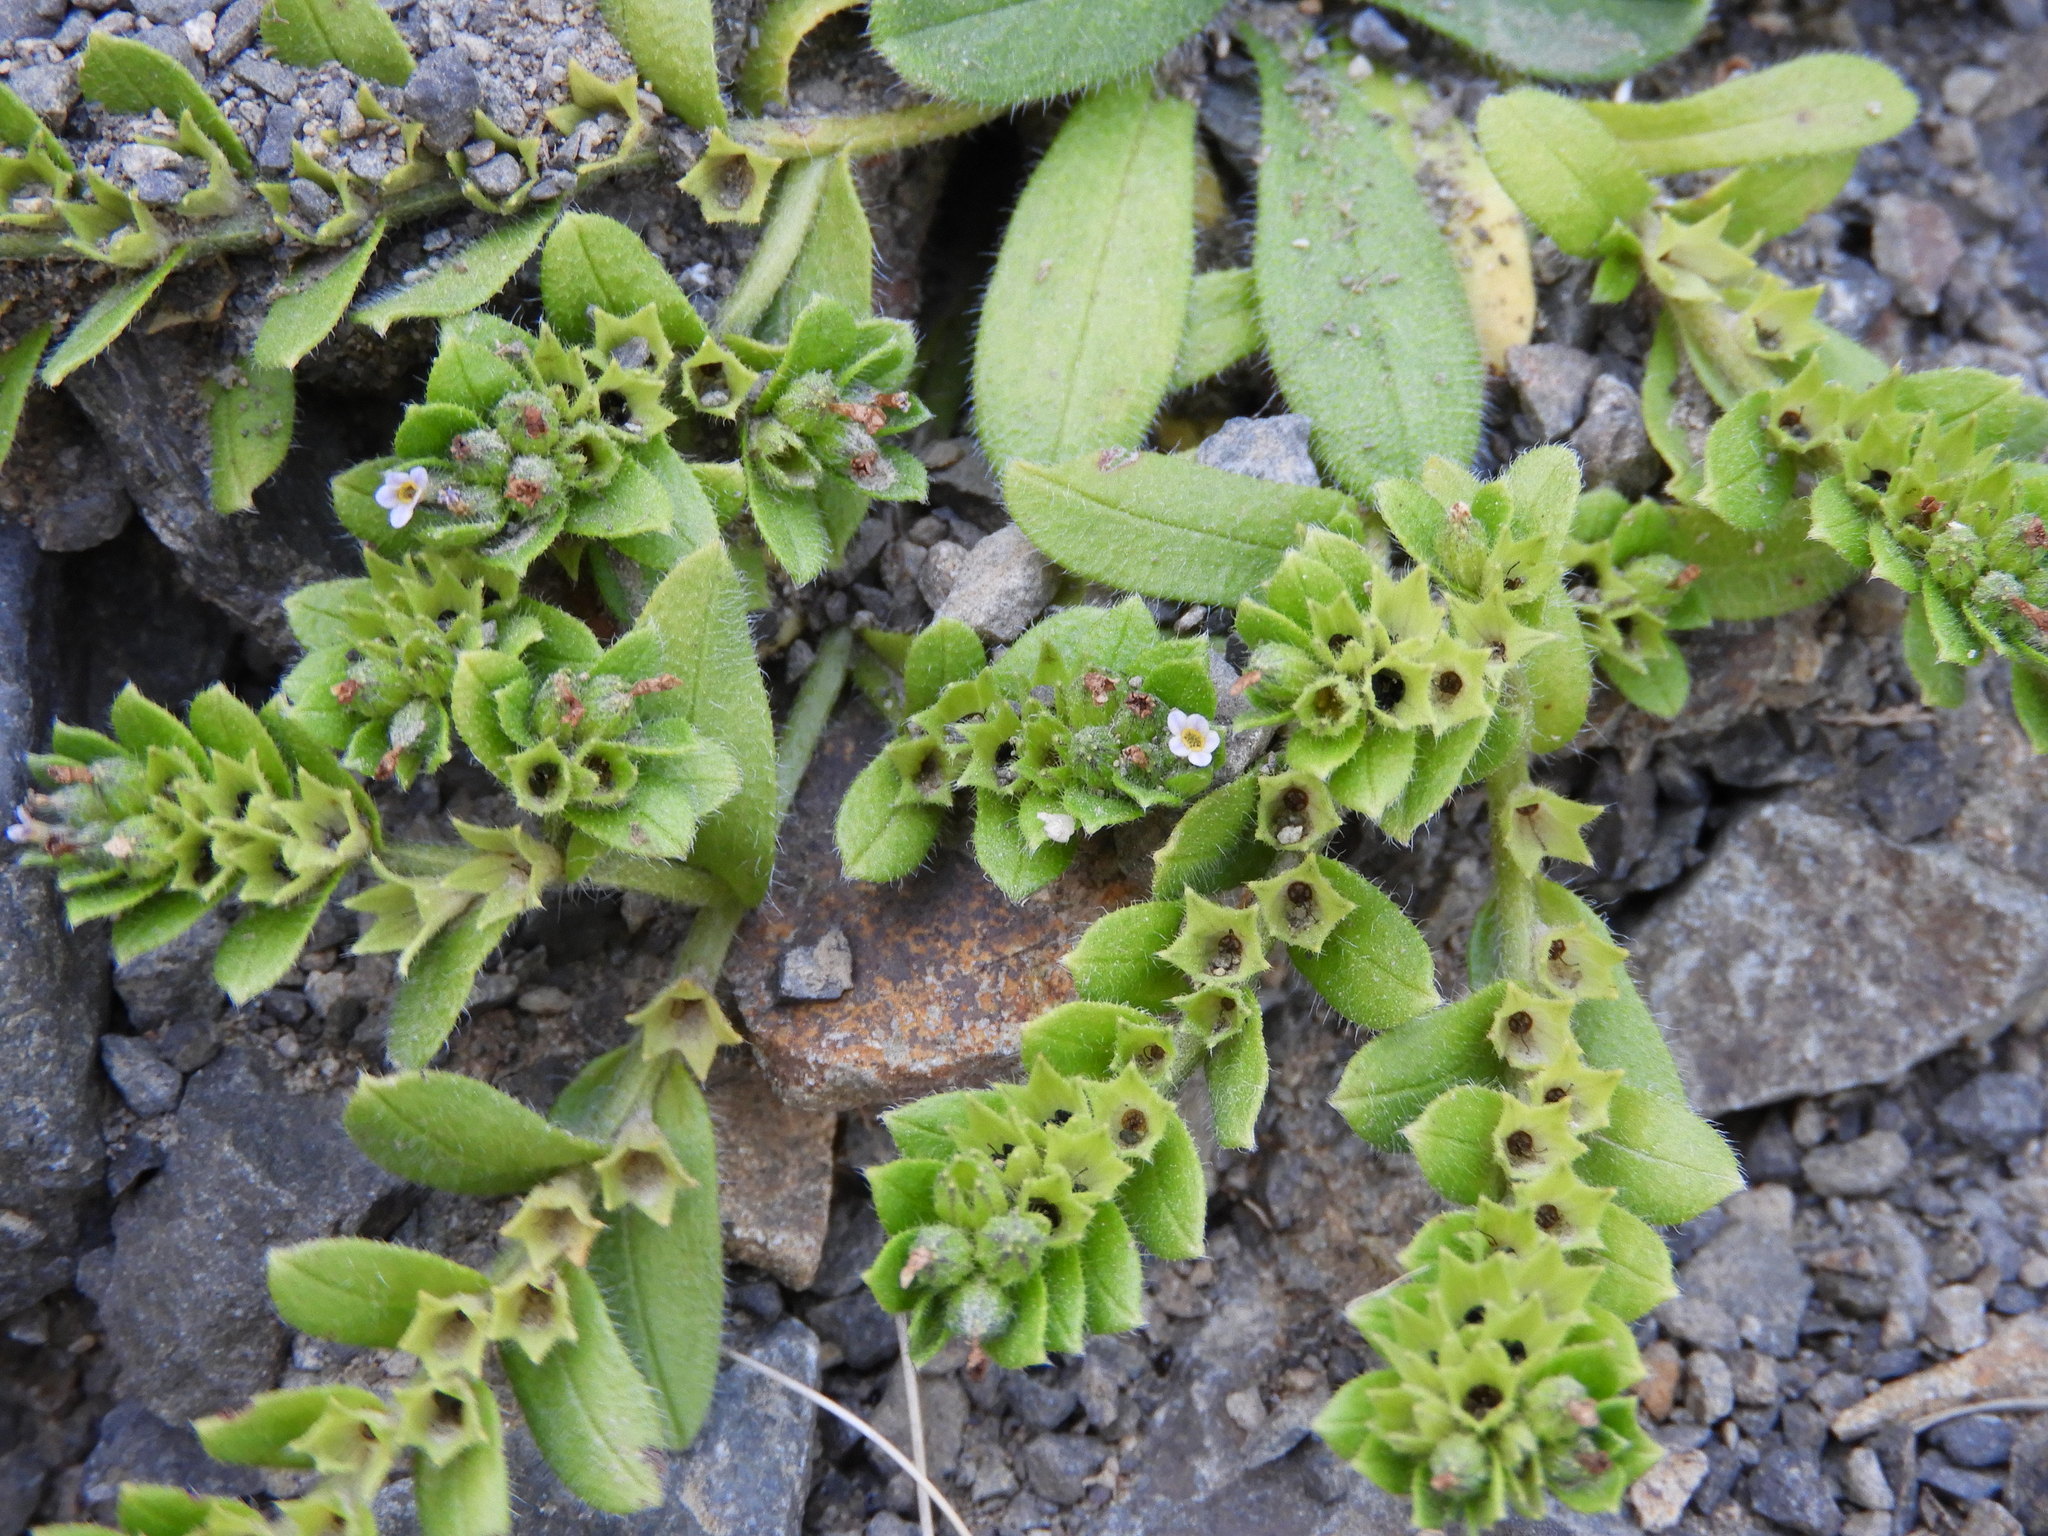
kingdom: Plantae
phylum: Tracheophyta
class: Magnoliopsida
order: Boraginales
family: Boraginaceae
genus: Myosotis
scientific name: Myosotis antarctica
